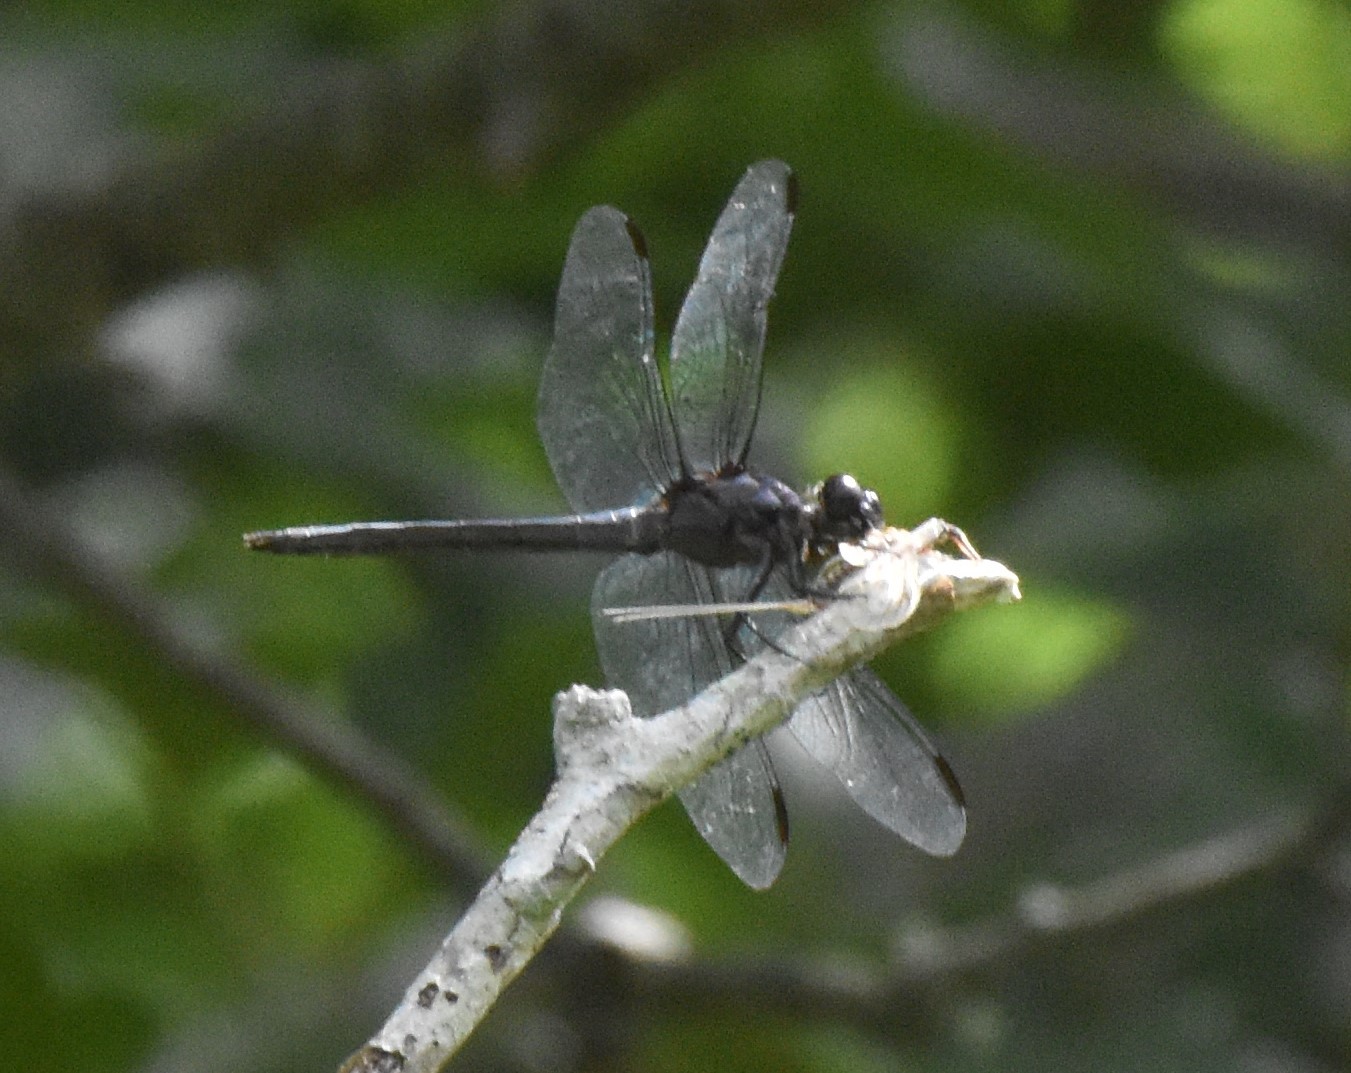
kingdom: Animalia
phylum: Arthropoda
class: Insecta
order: Odonata
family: Libellulidae
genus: Libellula
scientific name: Libellula incesta
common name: Slaty skimmer
